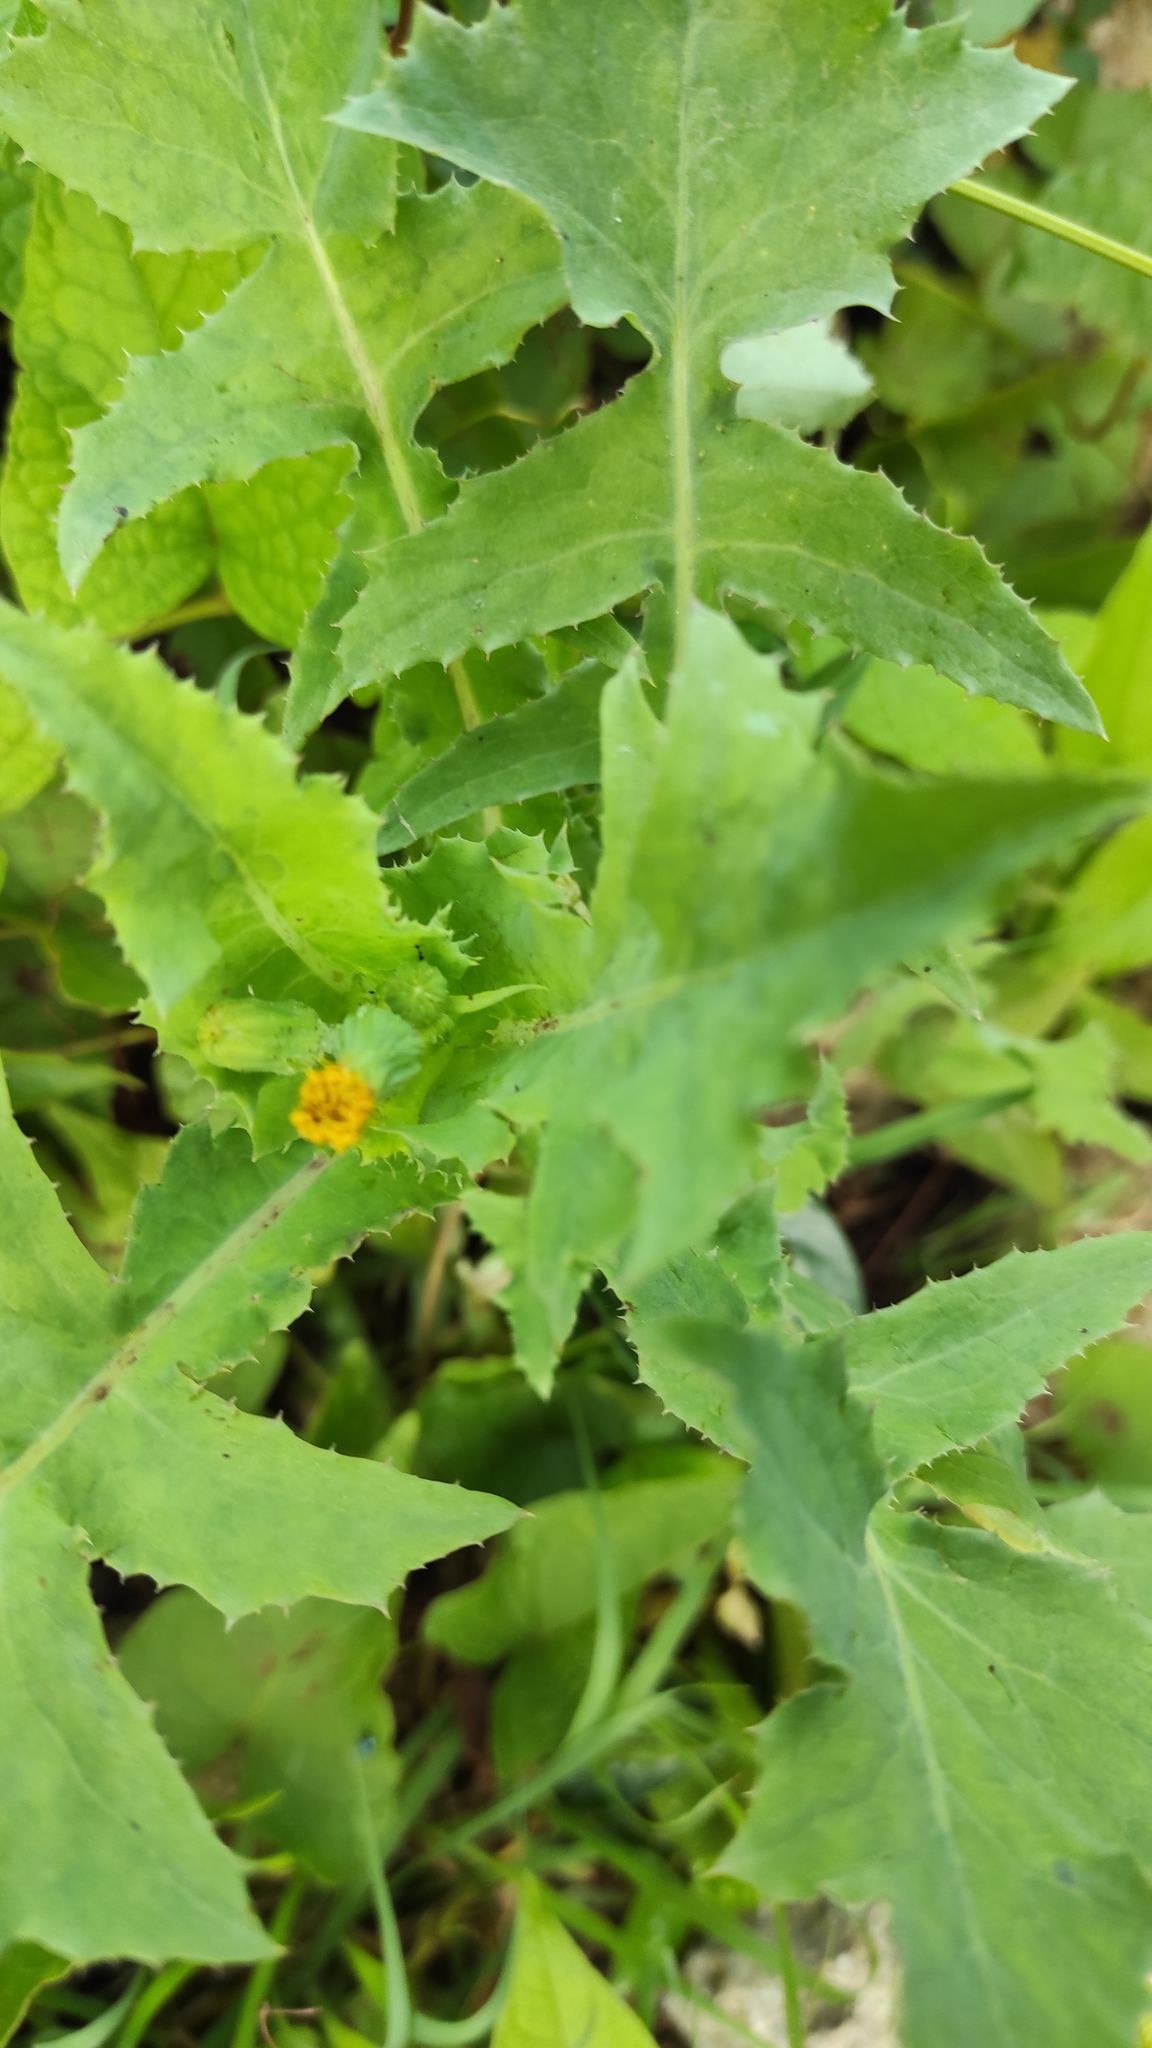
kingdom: Plantae
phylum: Tracheophyta
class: Magnoliopsida
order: Asterales
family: Asteraceae
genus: Sonchus
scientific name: Sonchus oleraceus
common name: Common sowthistle
